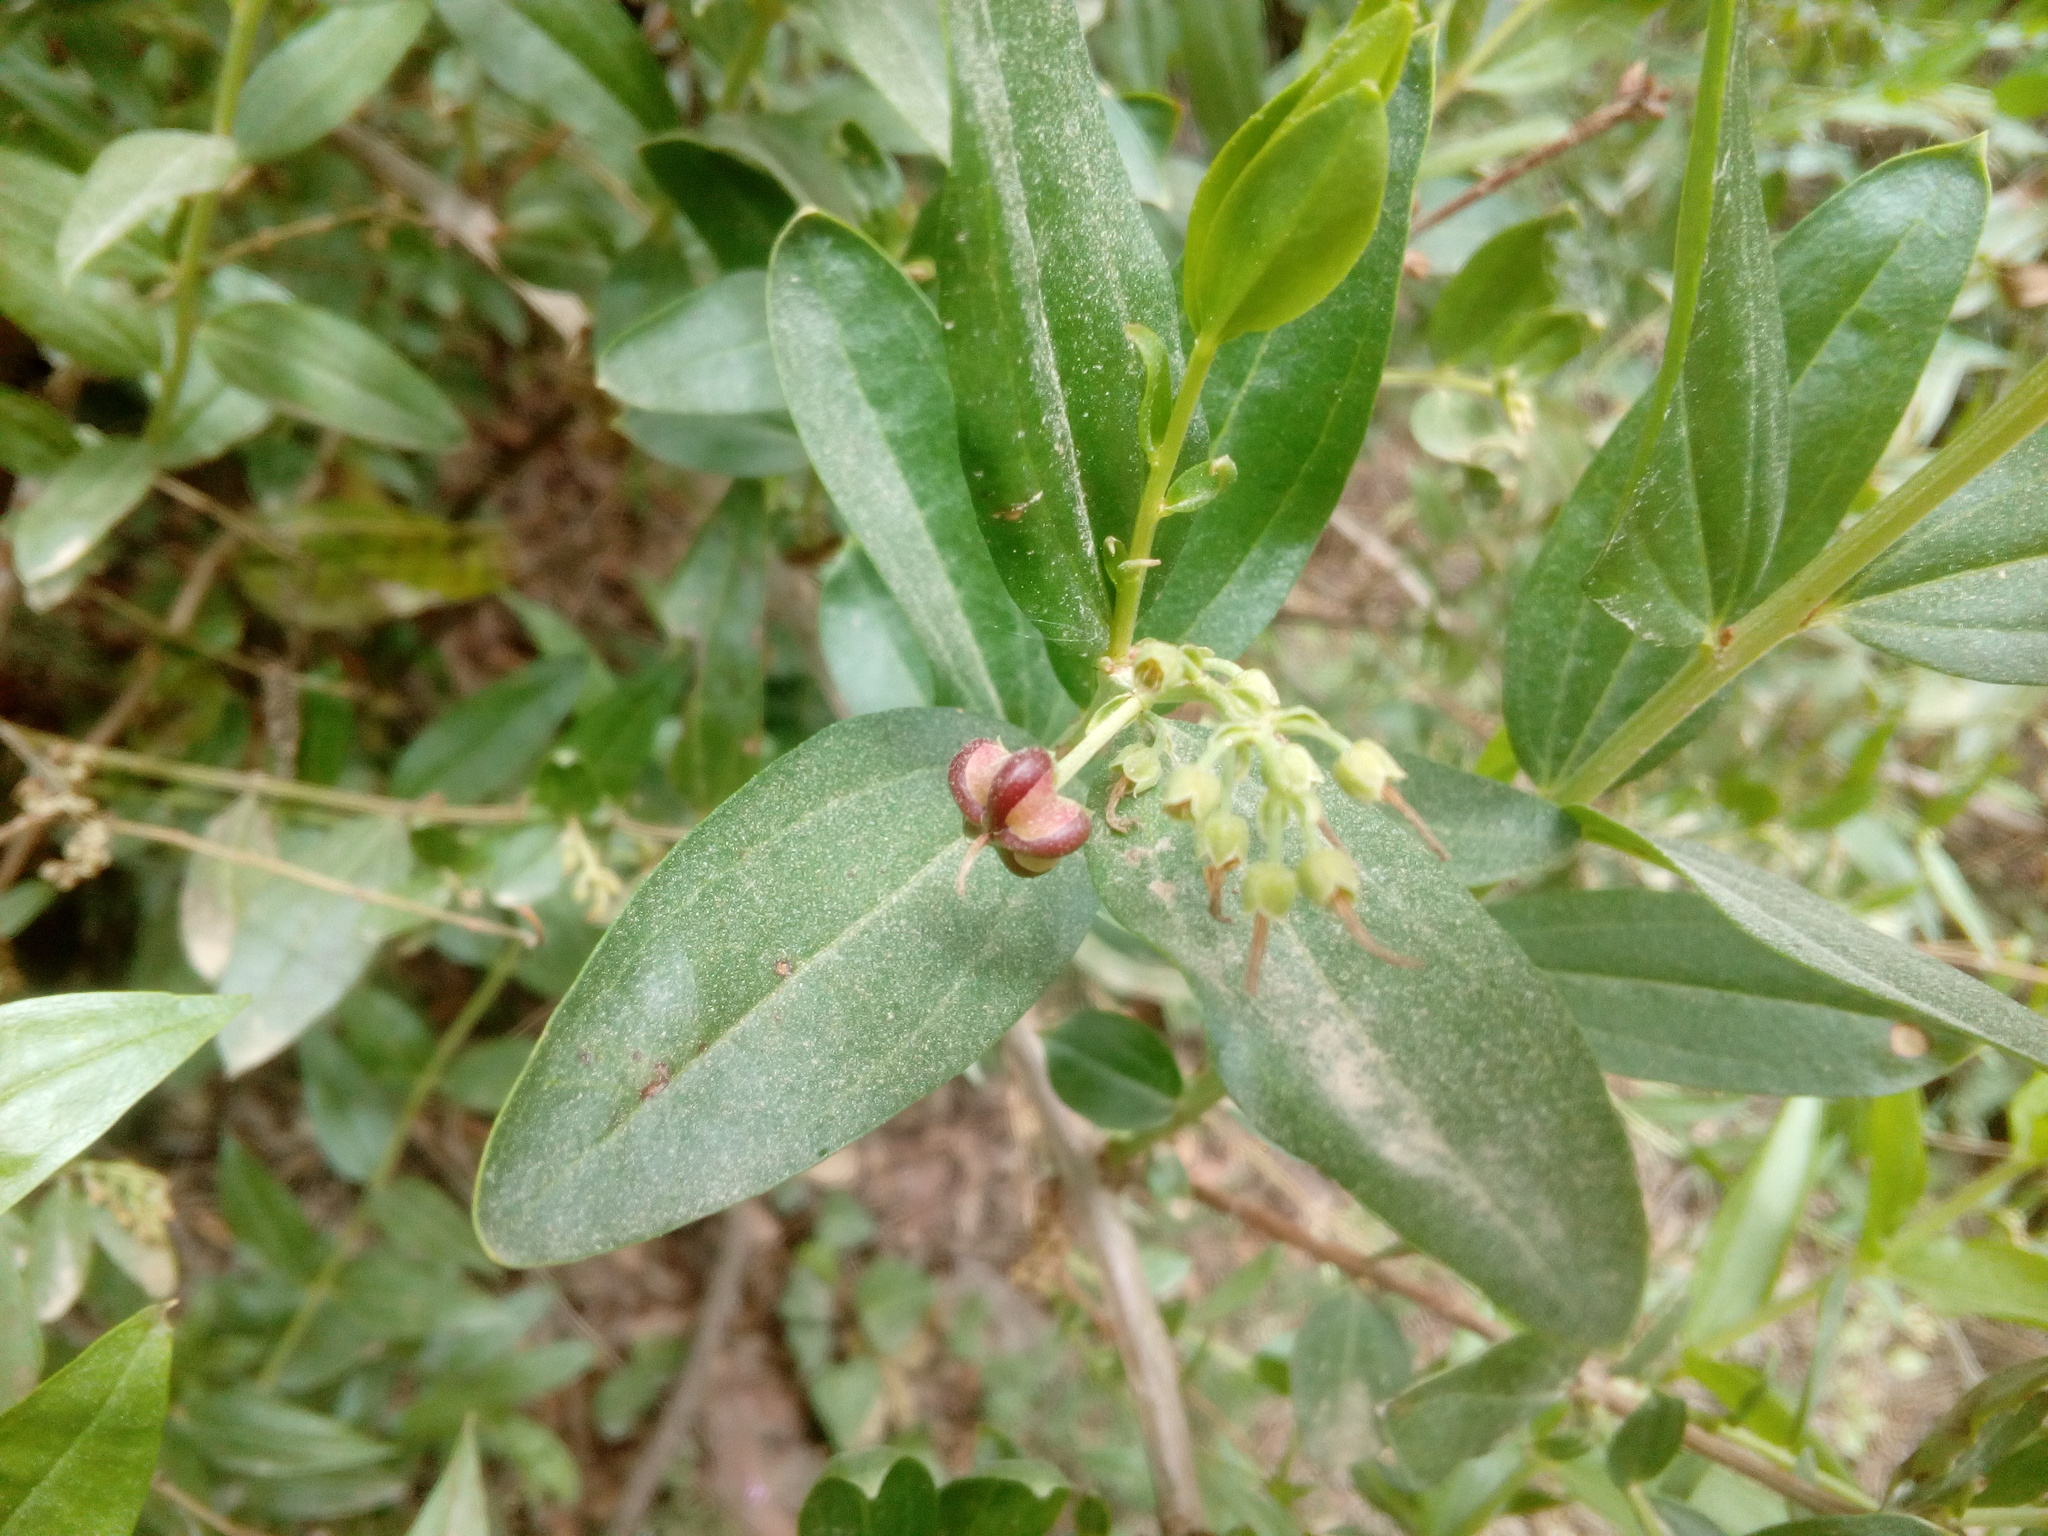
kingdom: Plantae
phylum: Tracheophyta
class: Magnoliopsida
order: Cucurbitales
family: Coriariaceae
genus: Coriaria
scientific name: Coriaria myrtifolia
